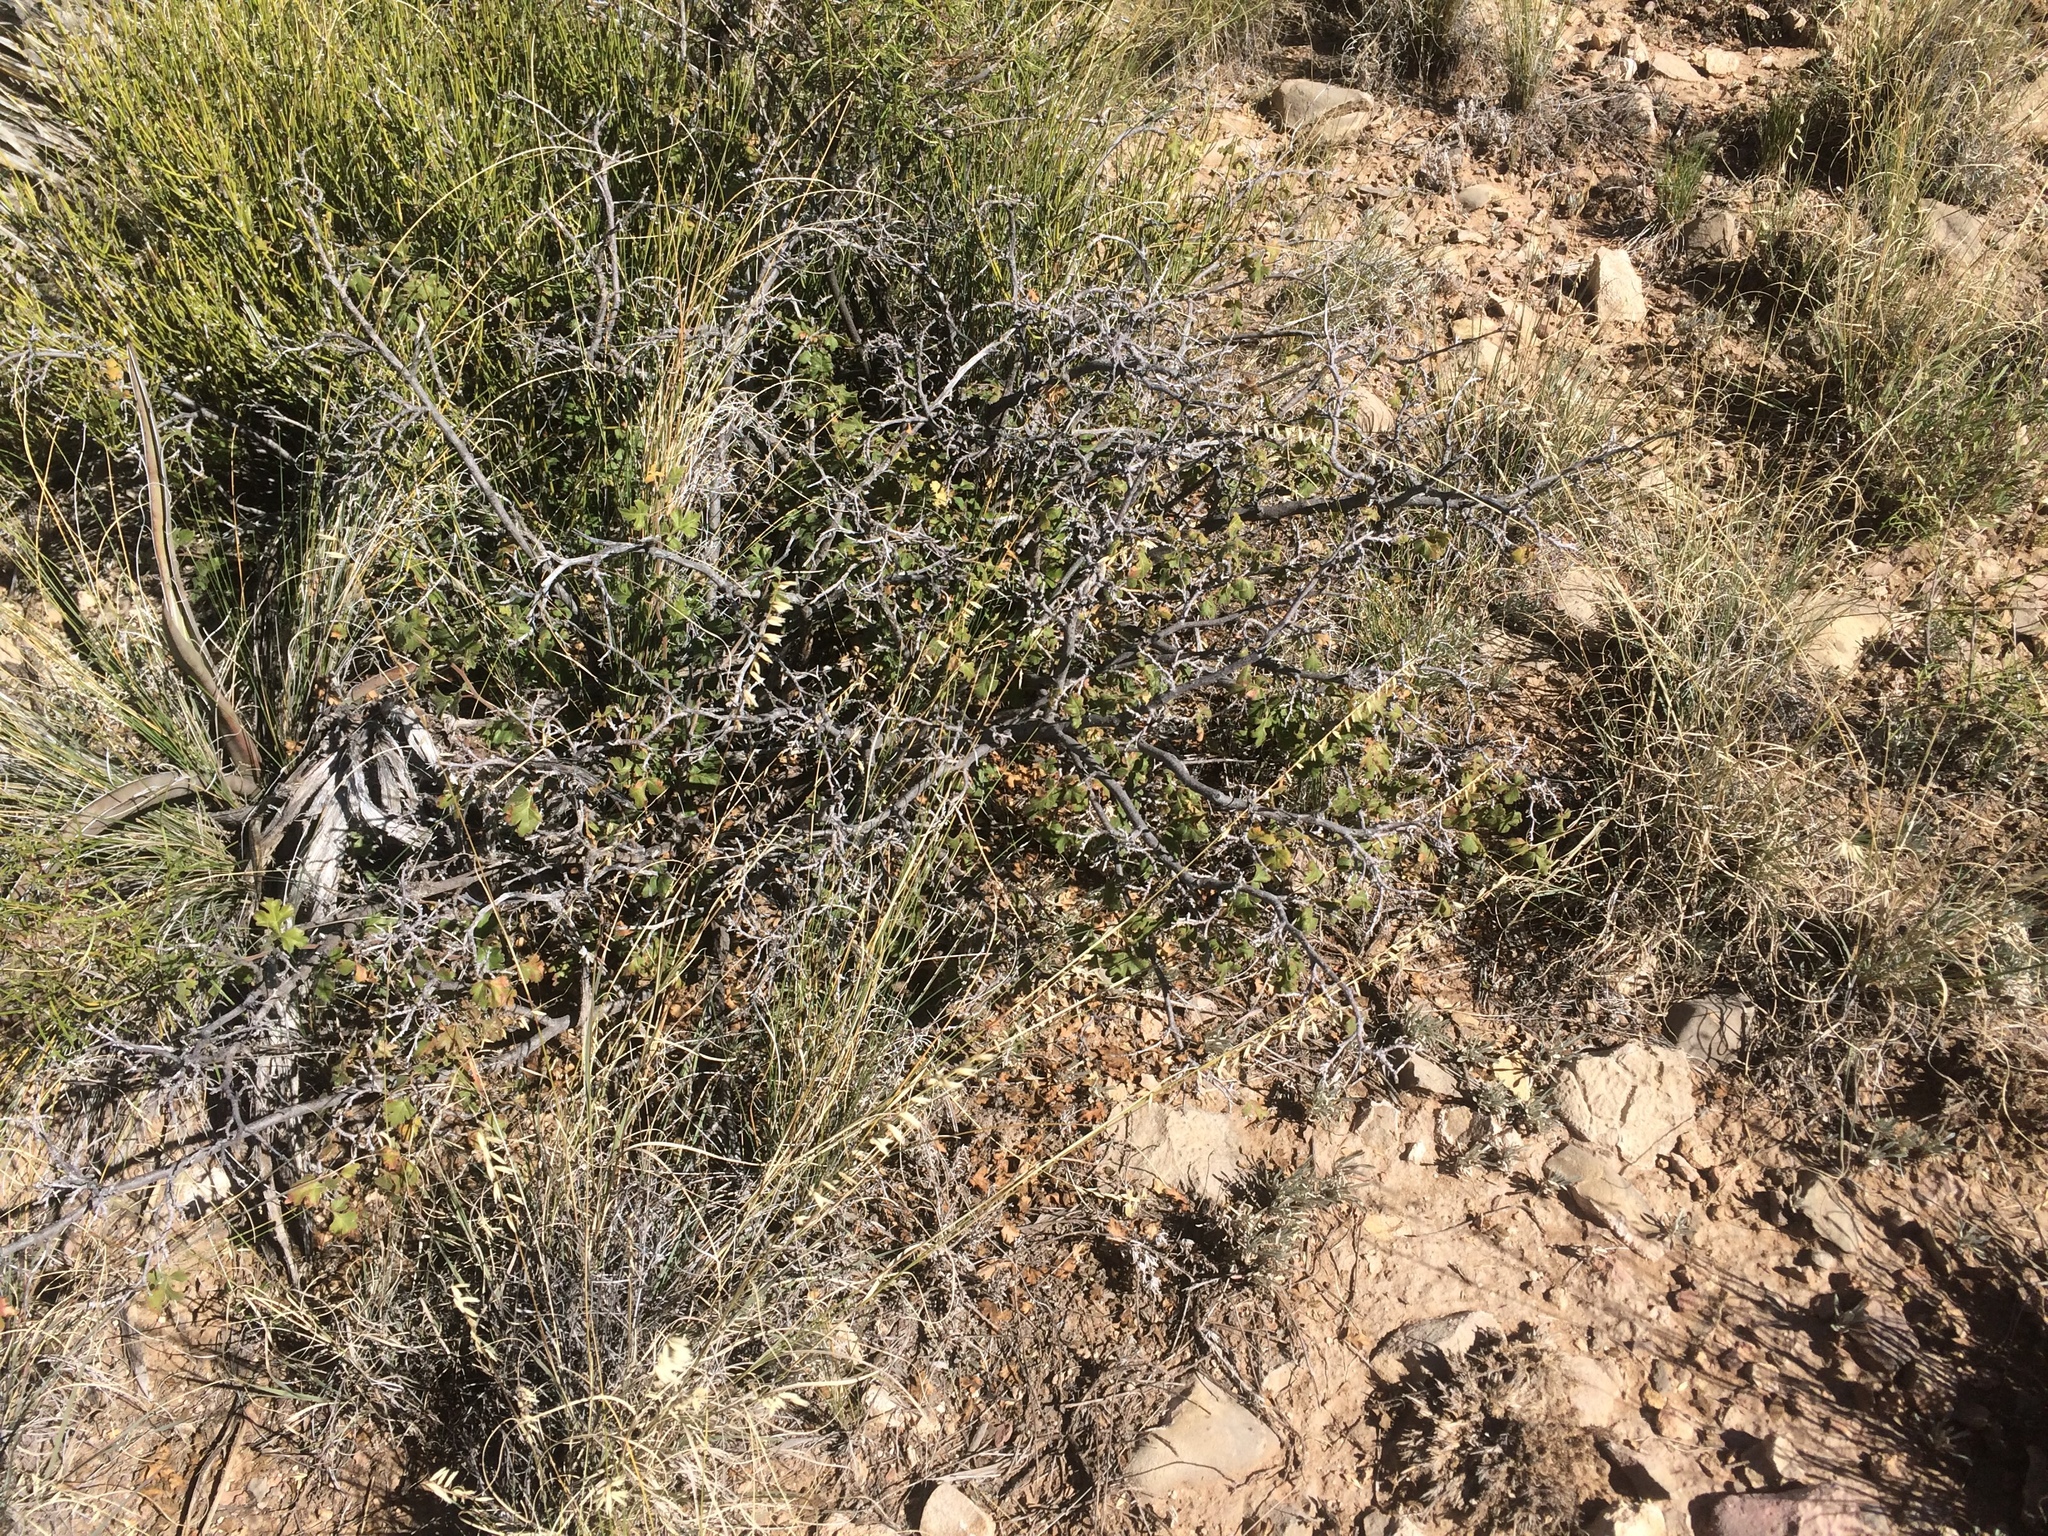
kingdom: Plantae
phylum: Tracheophyta
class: Magnoliopsida
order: Sapindales
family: Anacardiaceae
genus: Rhus
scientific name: Rhus aromatica
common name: Aromatic sumac
